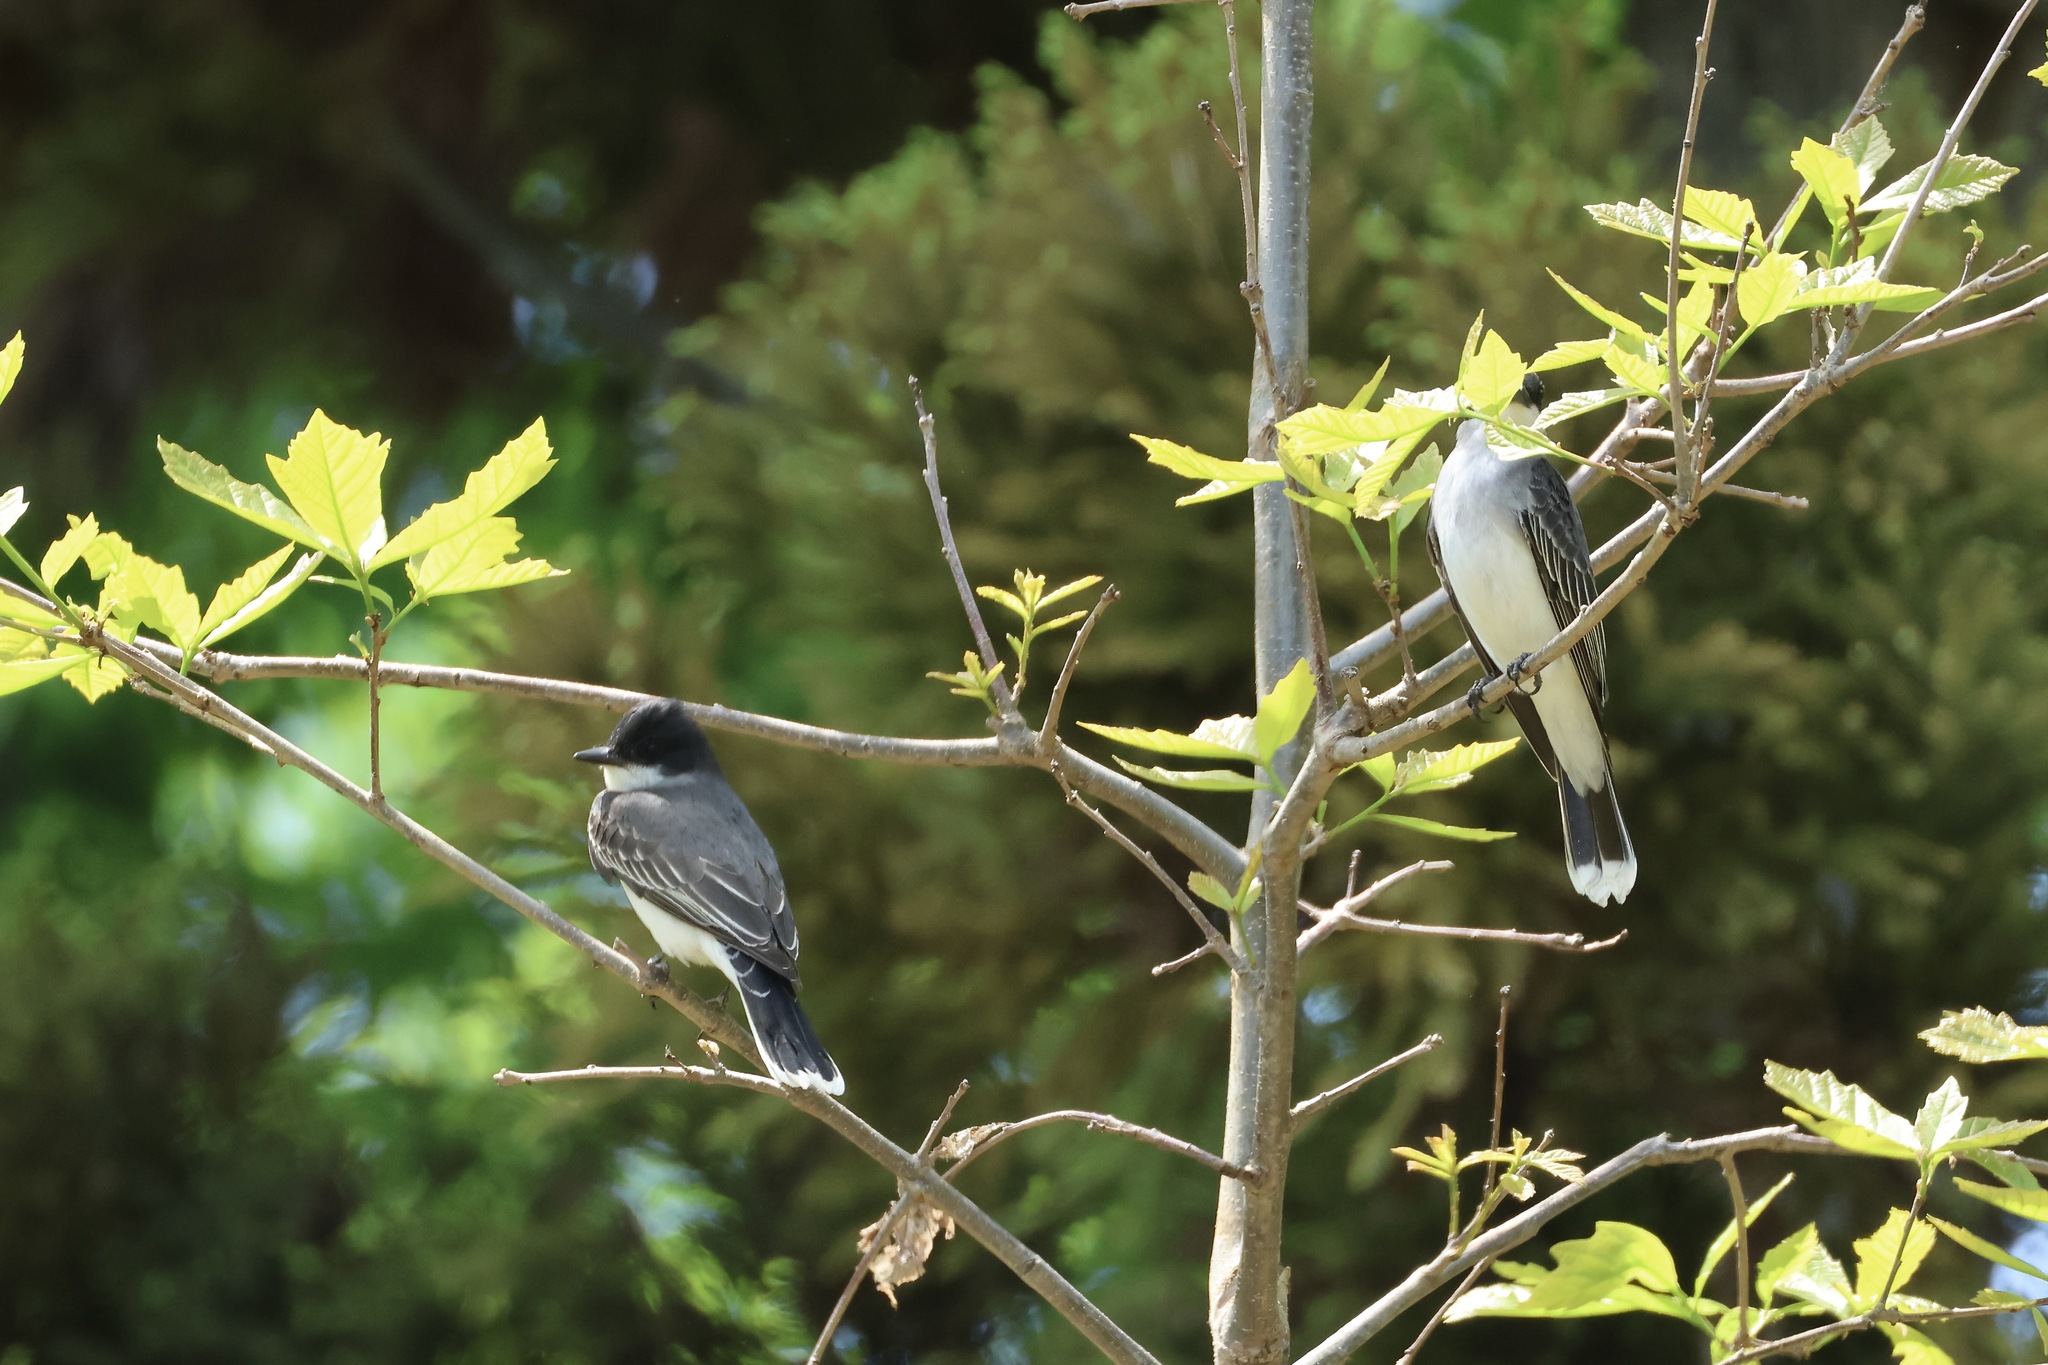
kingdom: Animalia
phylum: Chordata
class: Aves
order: Passeriformes
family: Tyrannidae
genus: Tyrannus
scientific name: Tyrannus tyrannus
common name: Eastern kingbird
